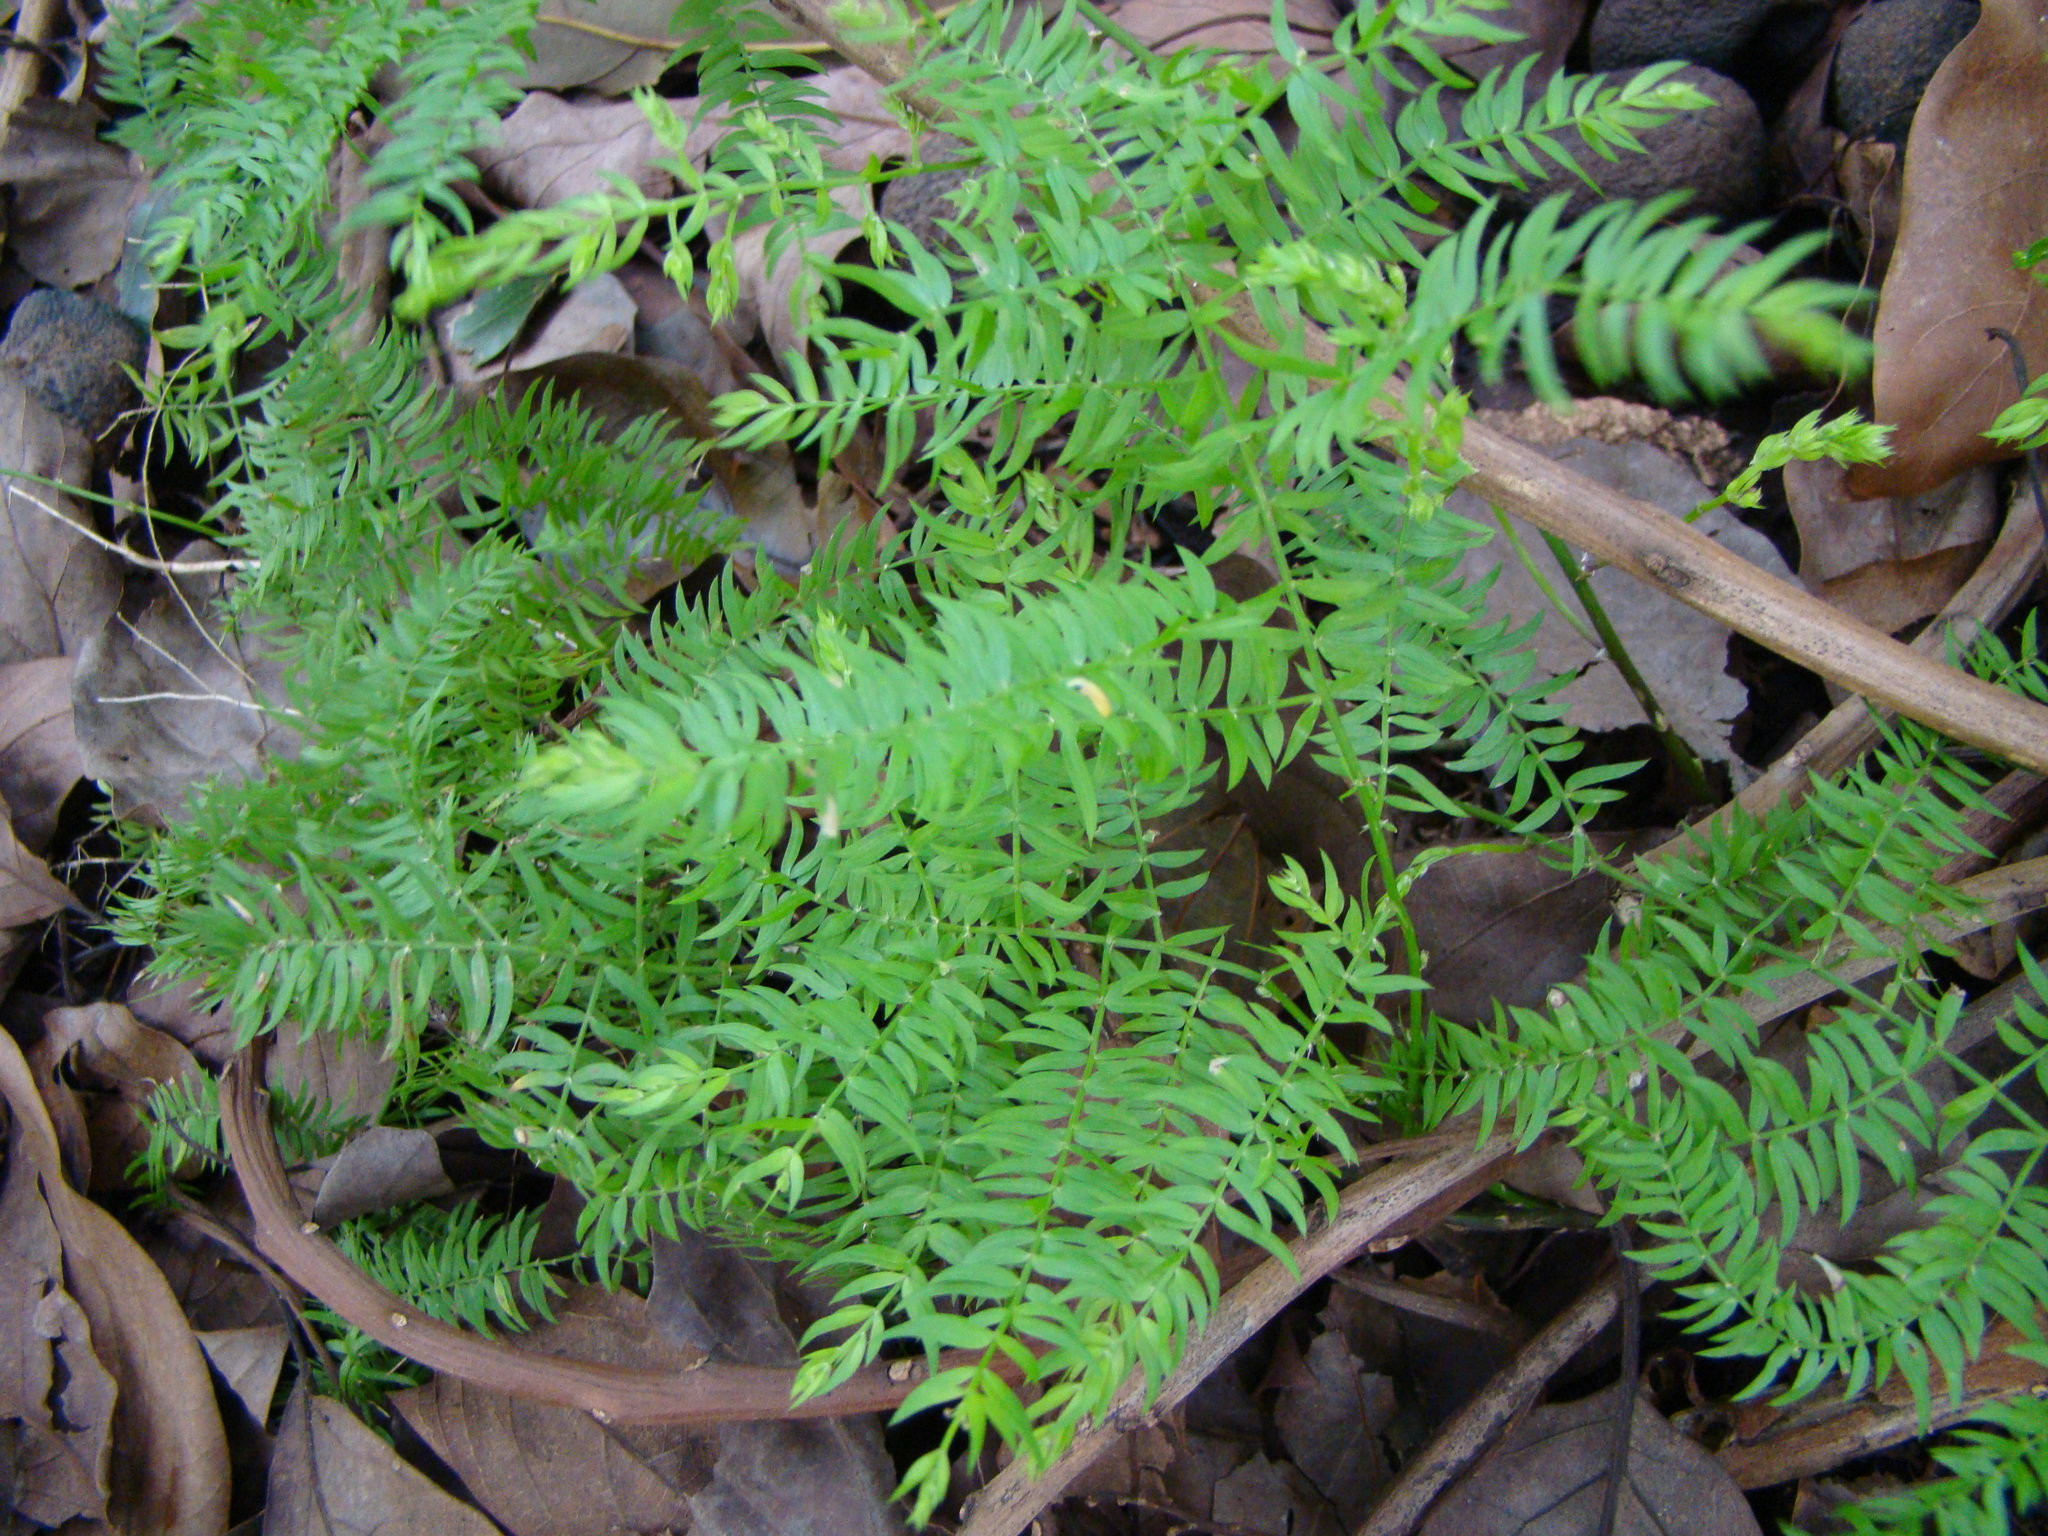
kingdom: Plantae
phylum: Tracheophyta
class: Liliopsida
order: Asparagales
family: Asparagaceae
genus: Asparagus
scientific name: Asparagus scandens
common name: Asparagus-fern
